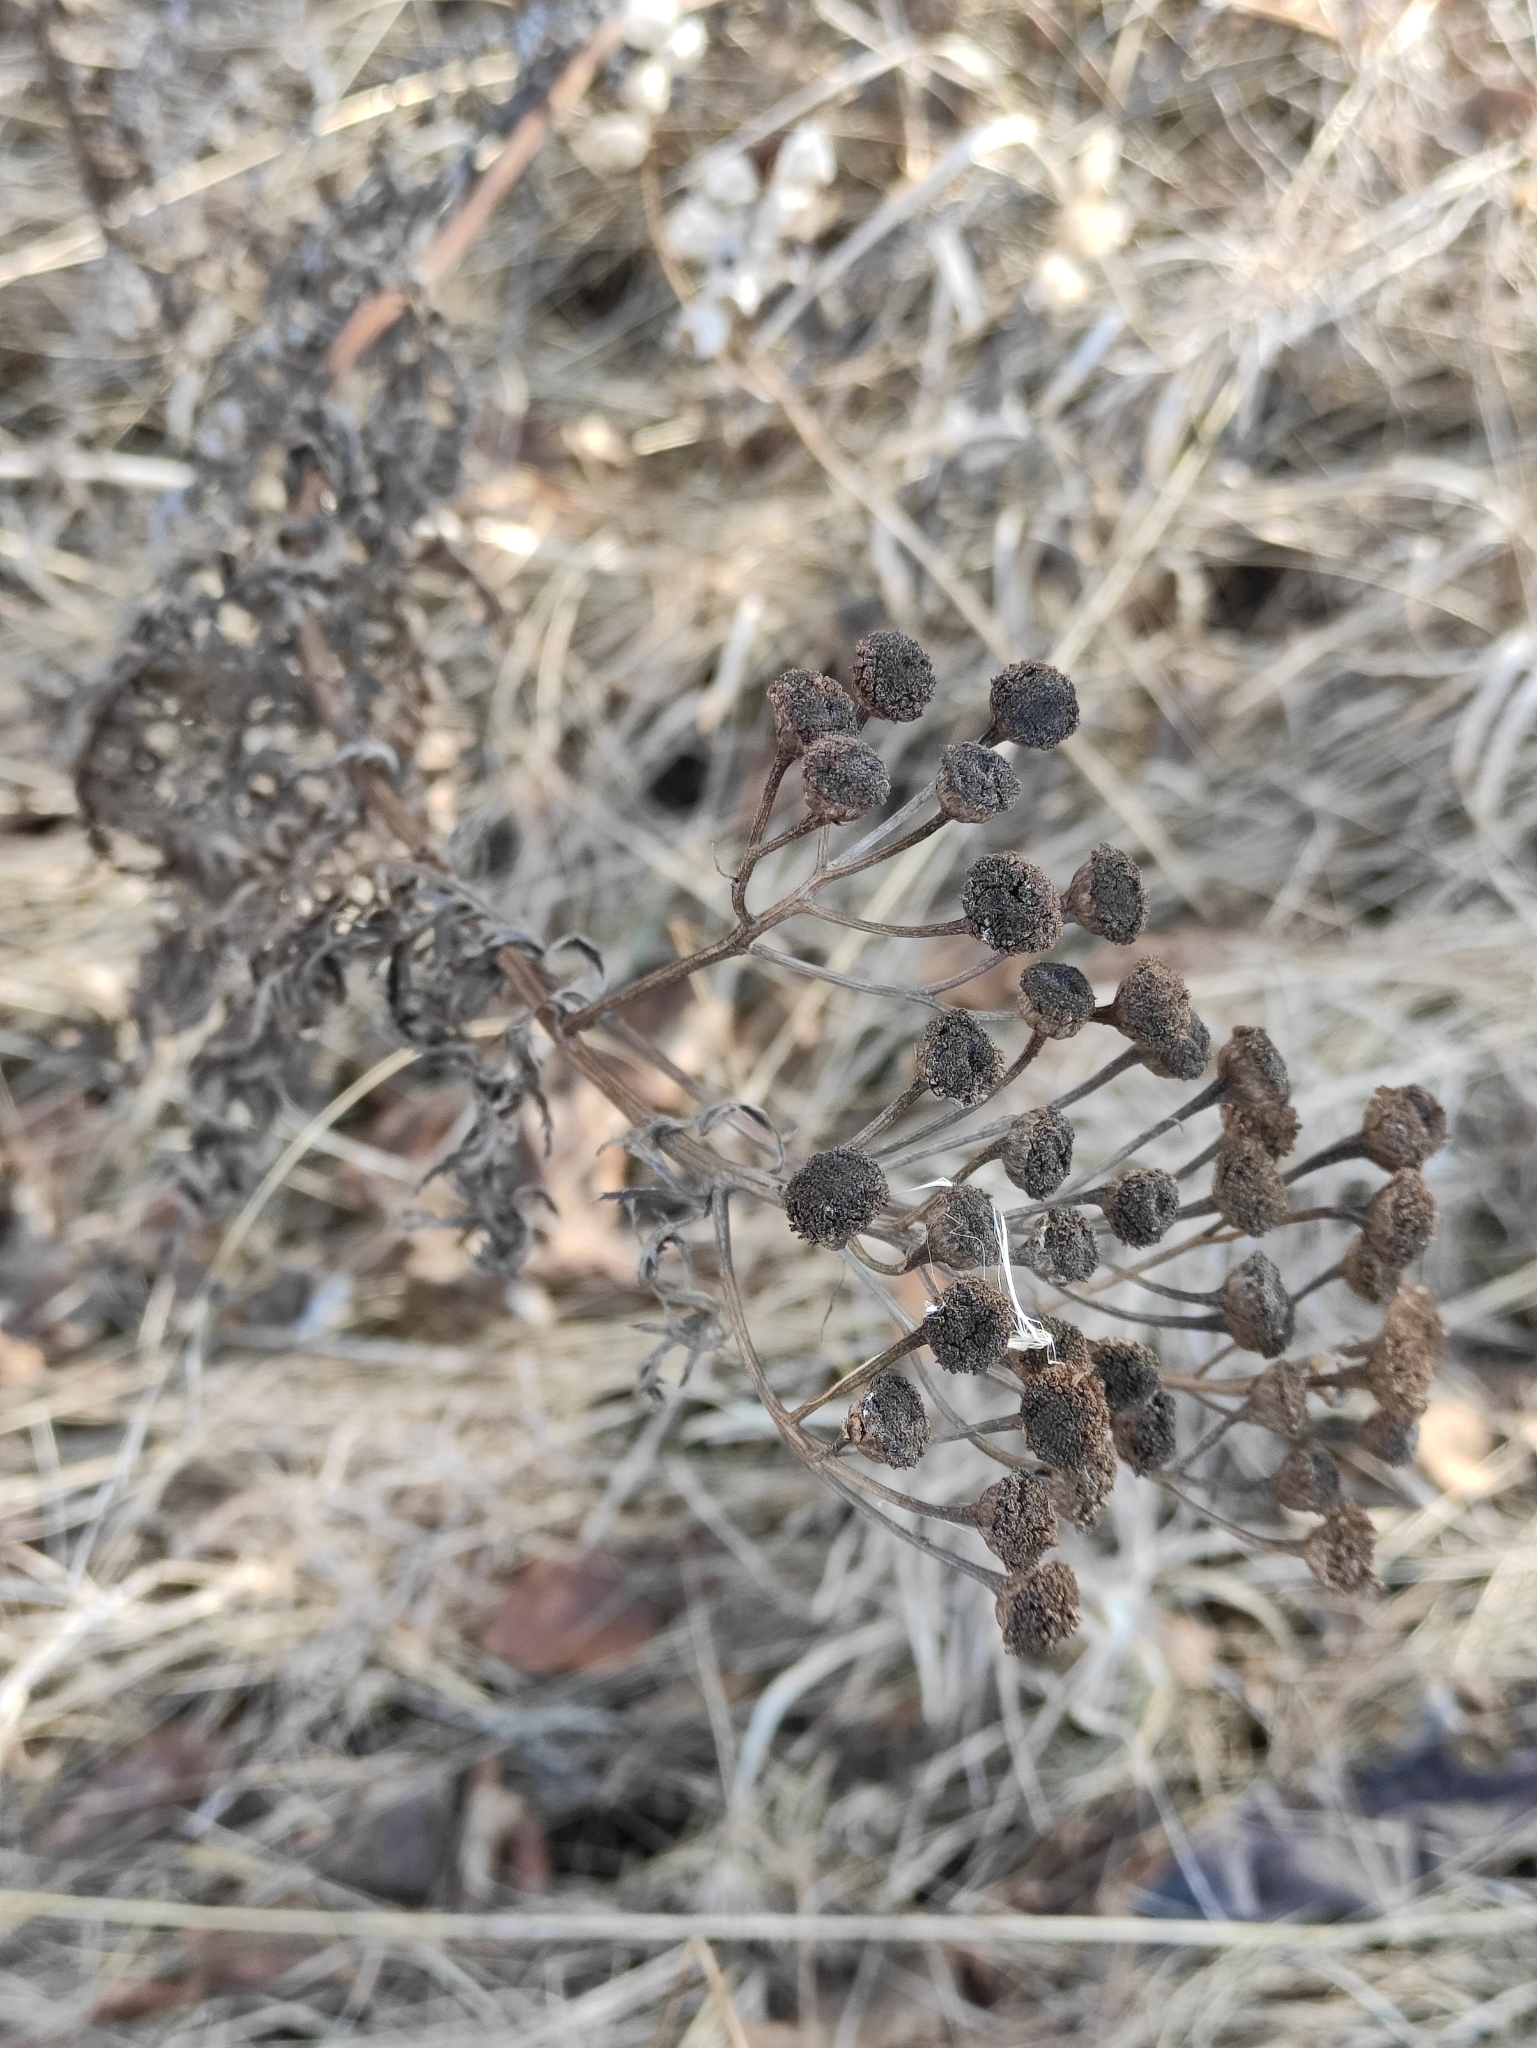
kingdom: Plantae
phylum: Tracheophyta
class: Magnoliopsida
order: Asterales
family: Asteraceae
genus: Tanacetum
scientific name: Tanacetum vulgare
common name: Common tansy
